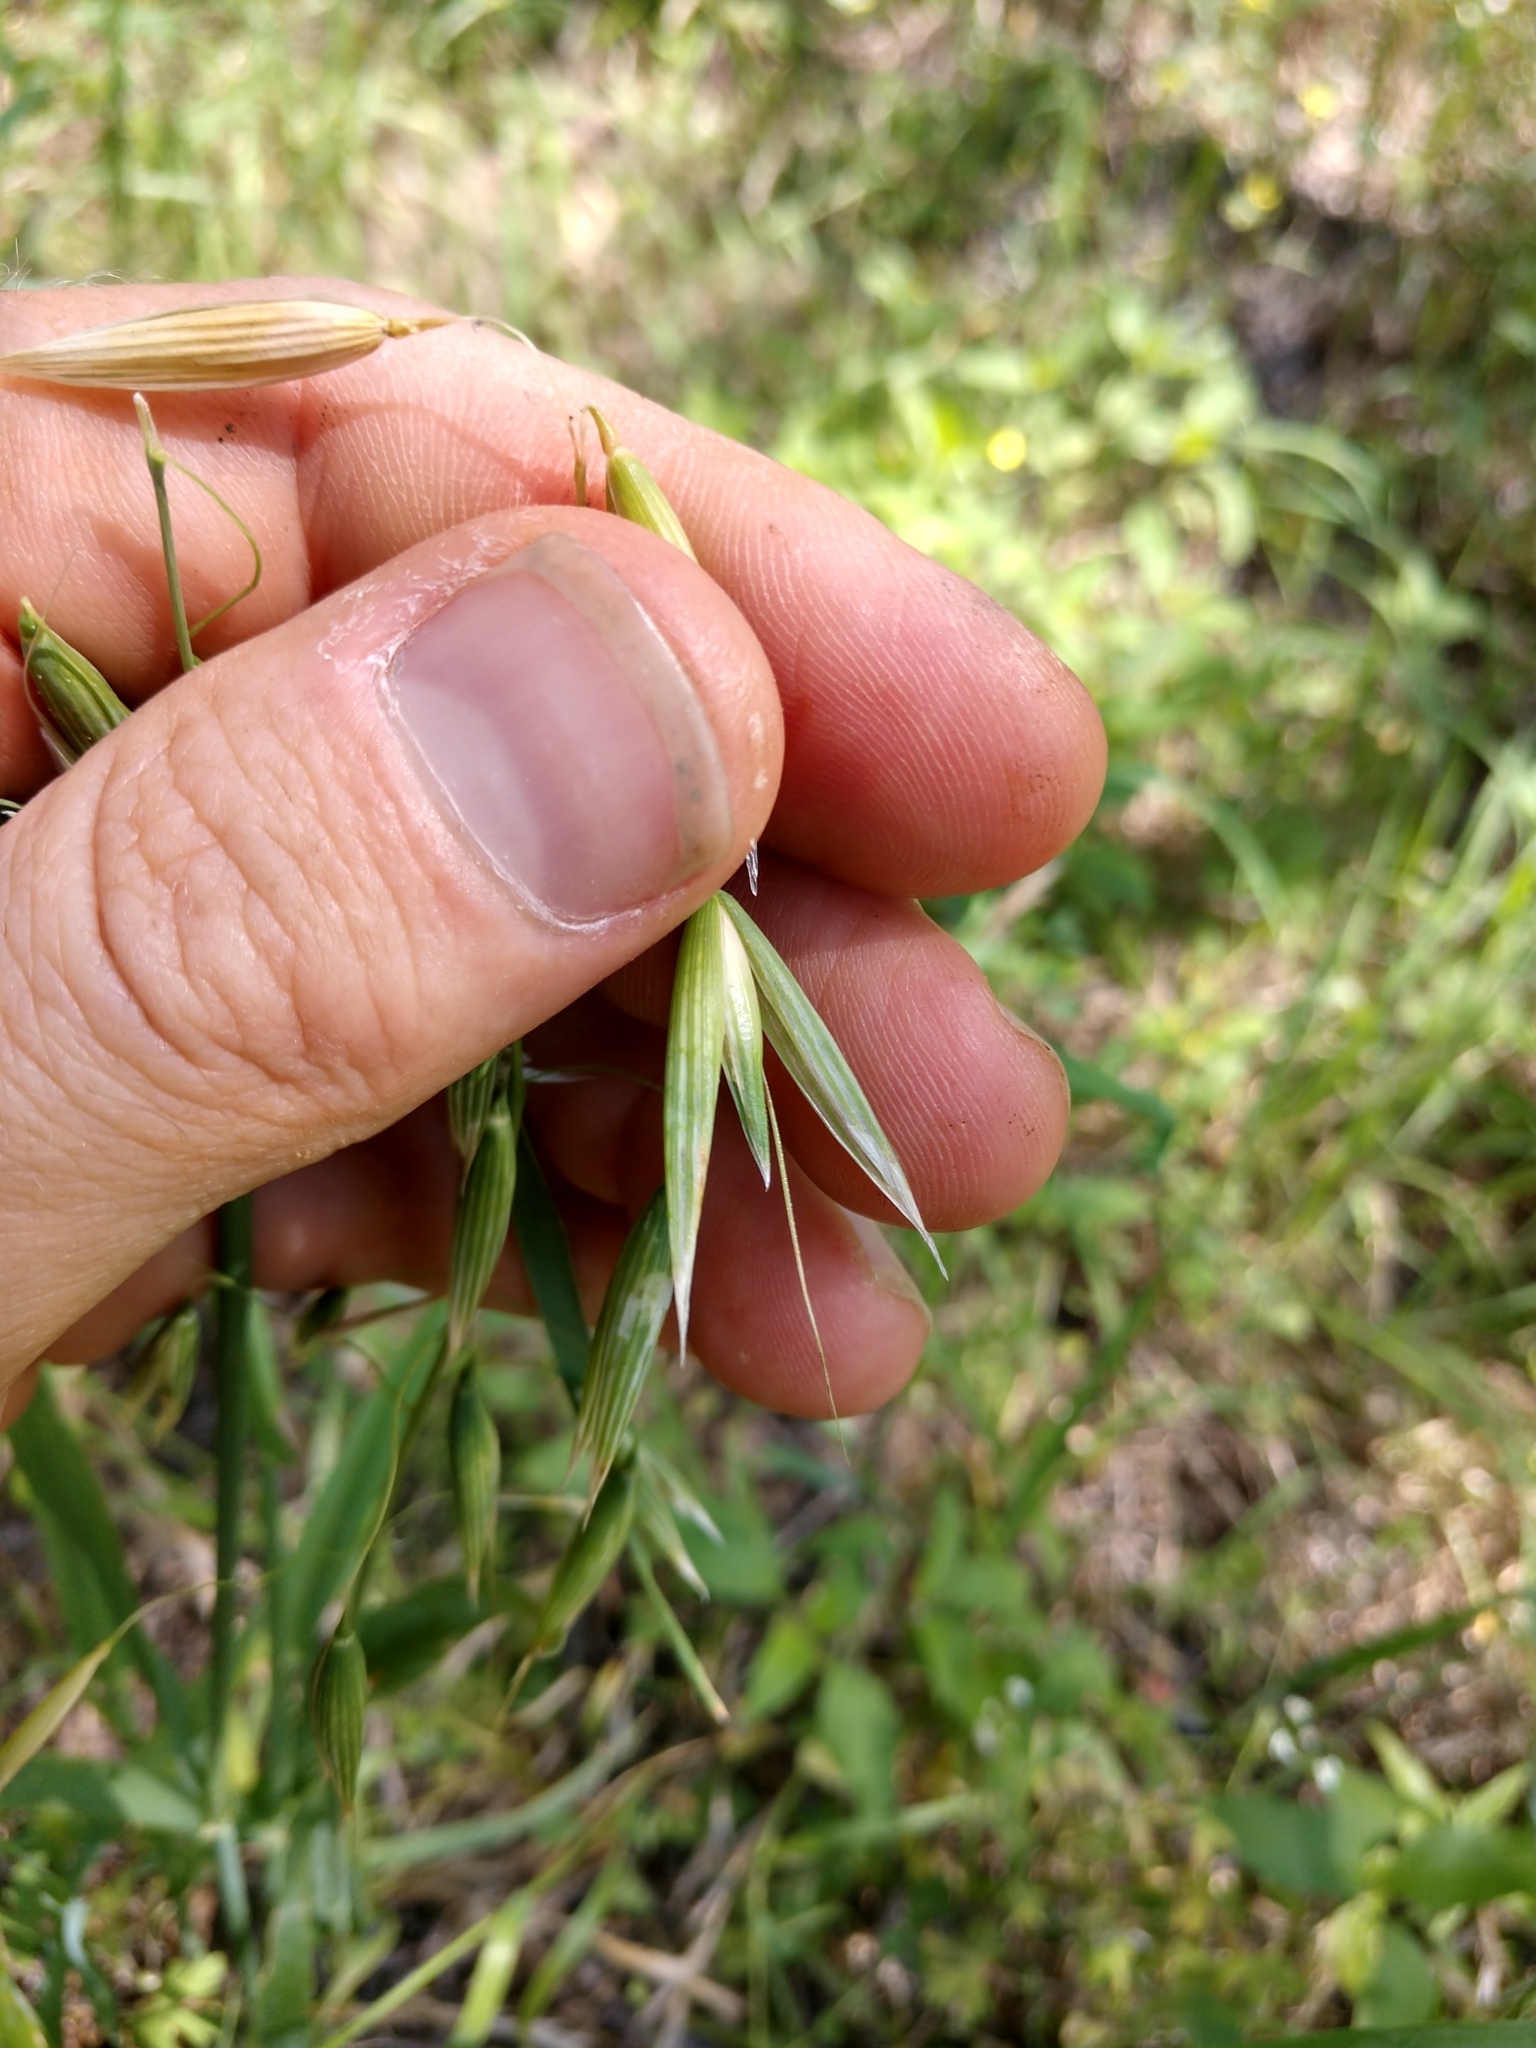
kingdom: Plantae
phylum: Tracheophyta
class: Liliopsida
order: Poales
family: Poaceae
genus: Avena
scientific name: Avena sativa
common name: Oat
